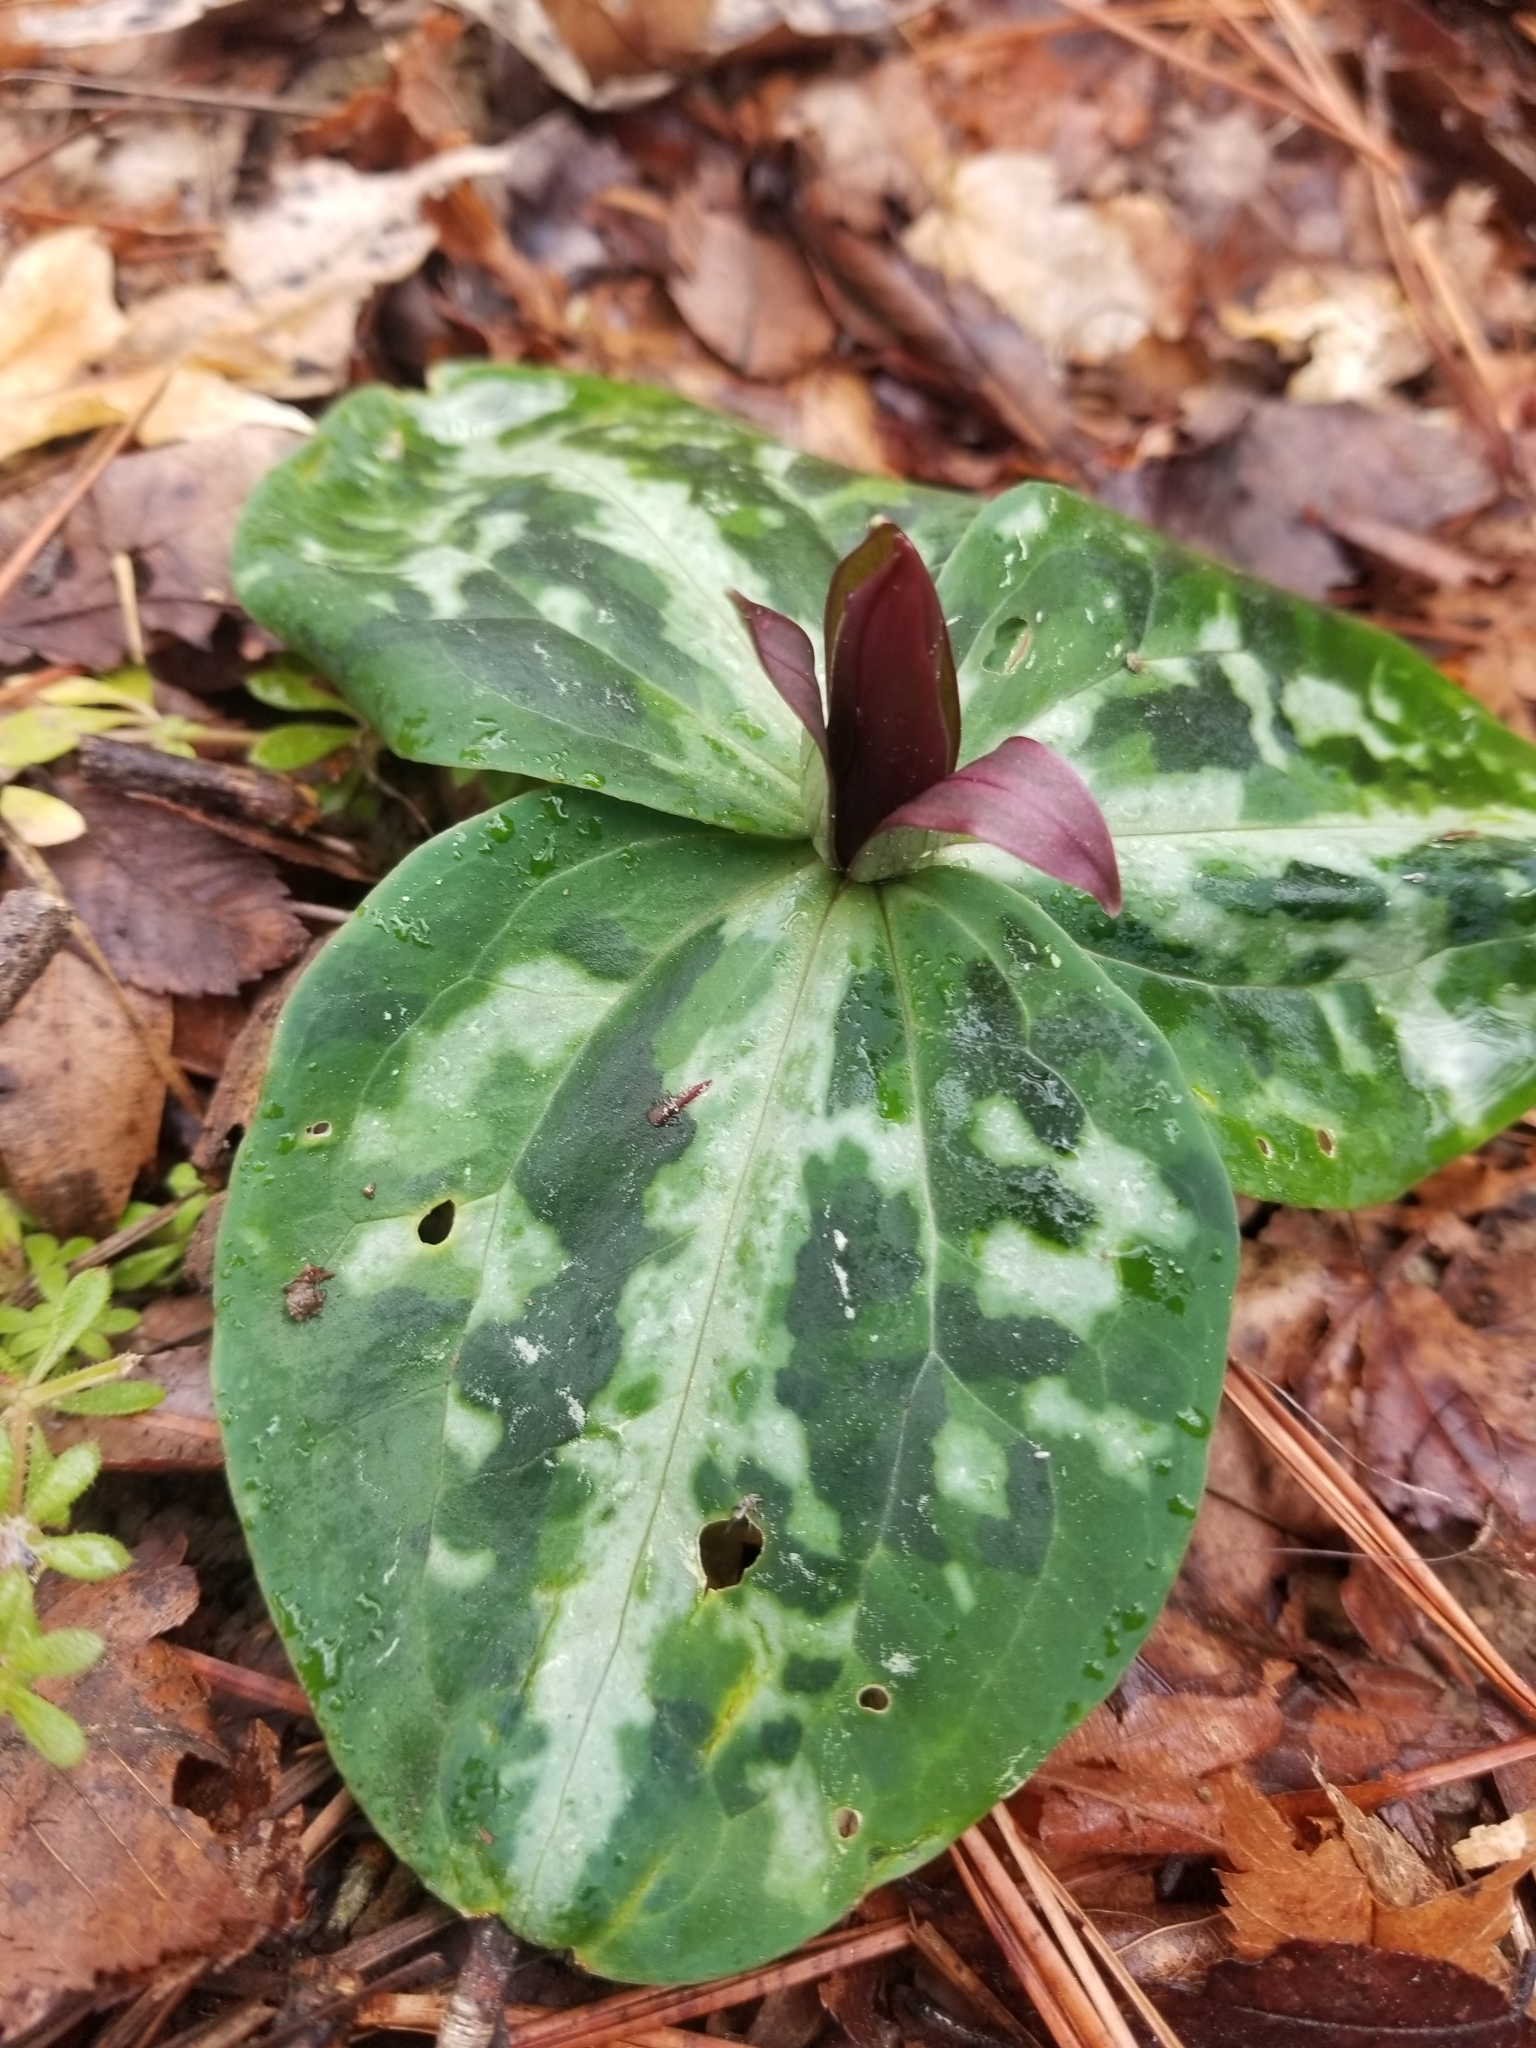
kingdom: Plantae
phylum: Tracheophyta
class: Liliopsida
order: Liliales
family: Melanthiaceae
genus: Trillium
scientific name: Trillium reliquum
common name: Relict trillium
